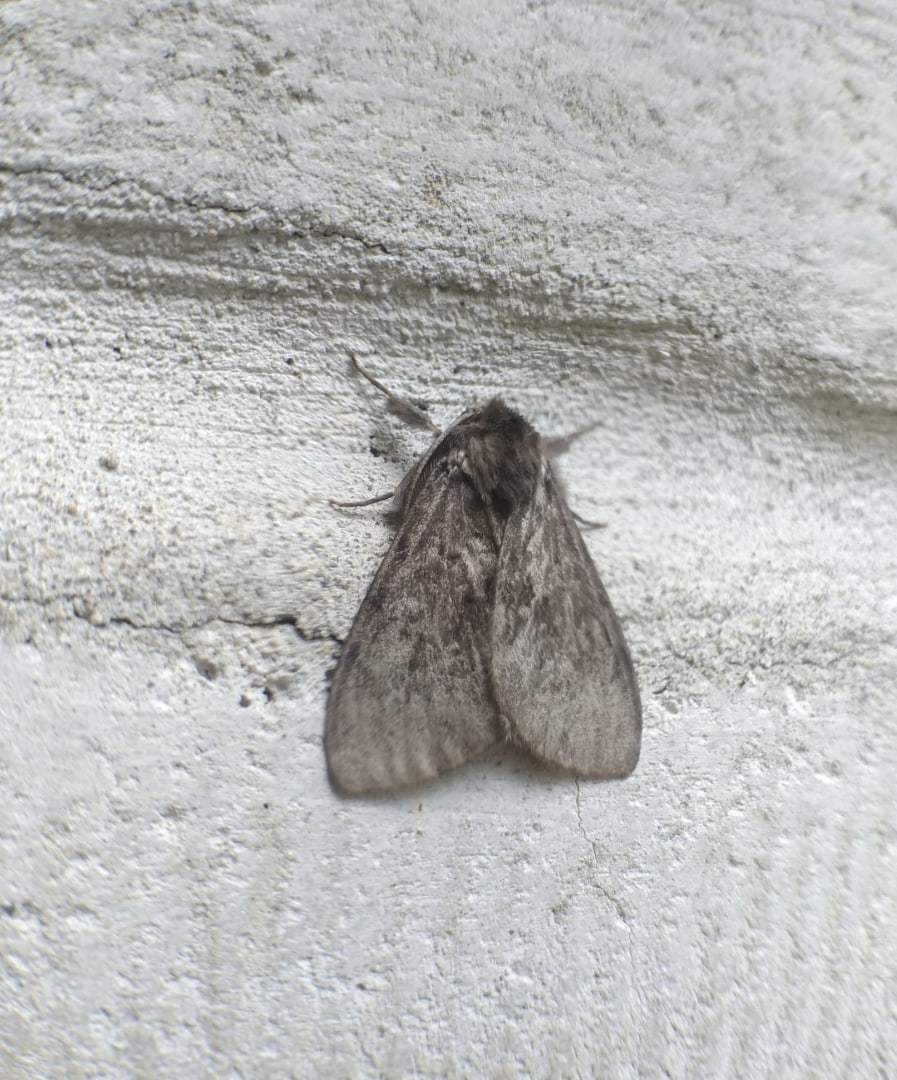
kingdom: Animalia
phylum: Arthropoda
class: Insecta
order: Lepidoptera
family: Erebidae
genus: Lymantria
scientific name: Lymantria monacha
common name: Black arches
